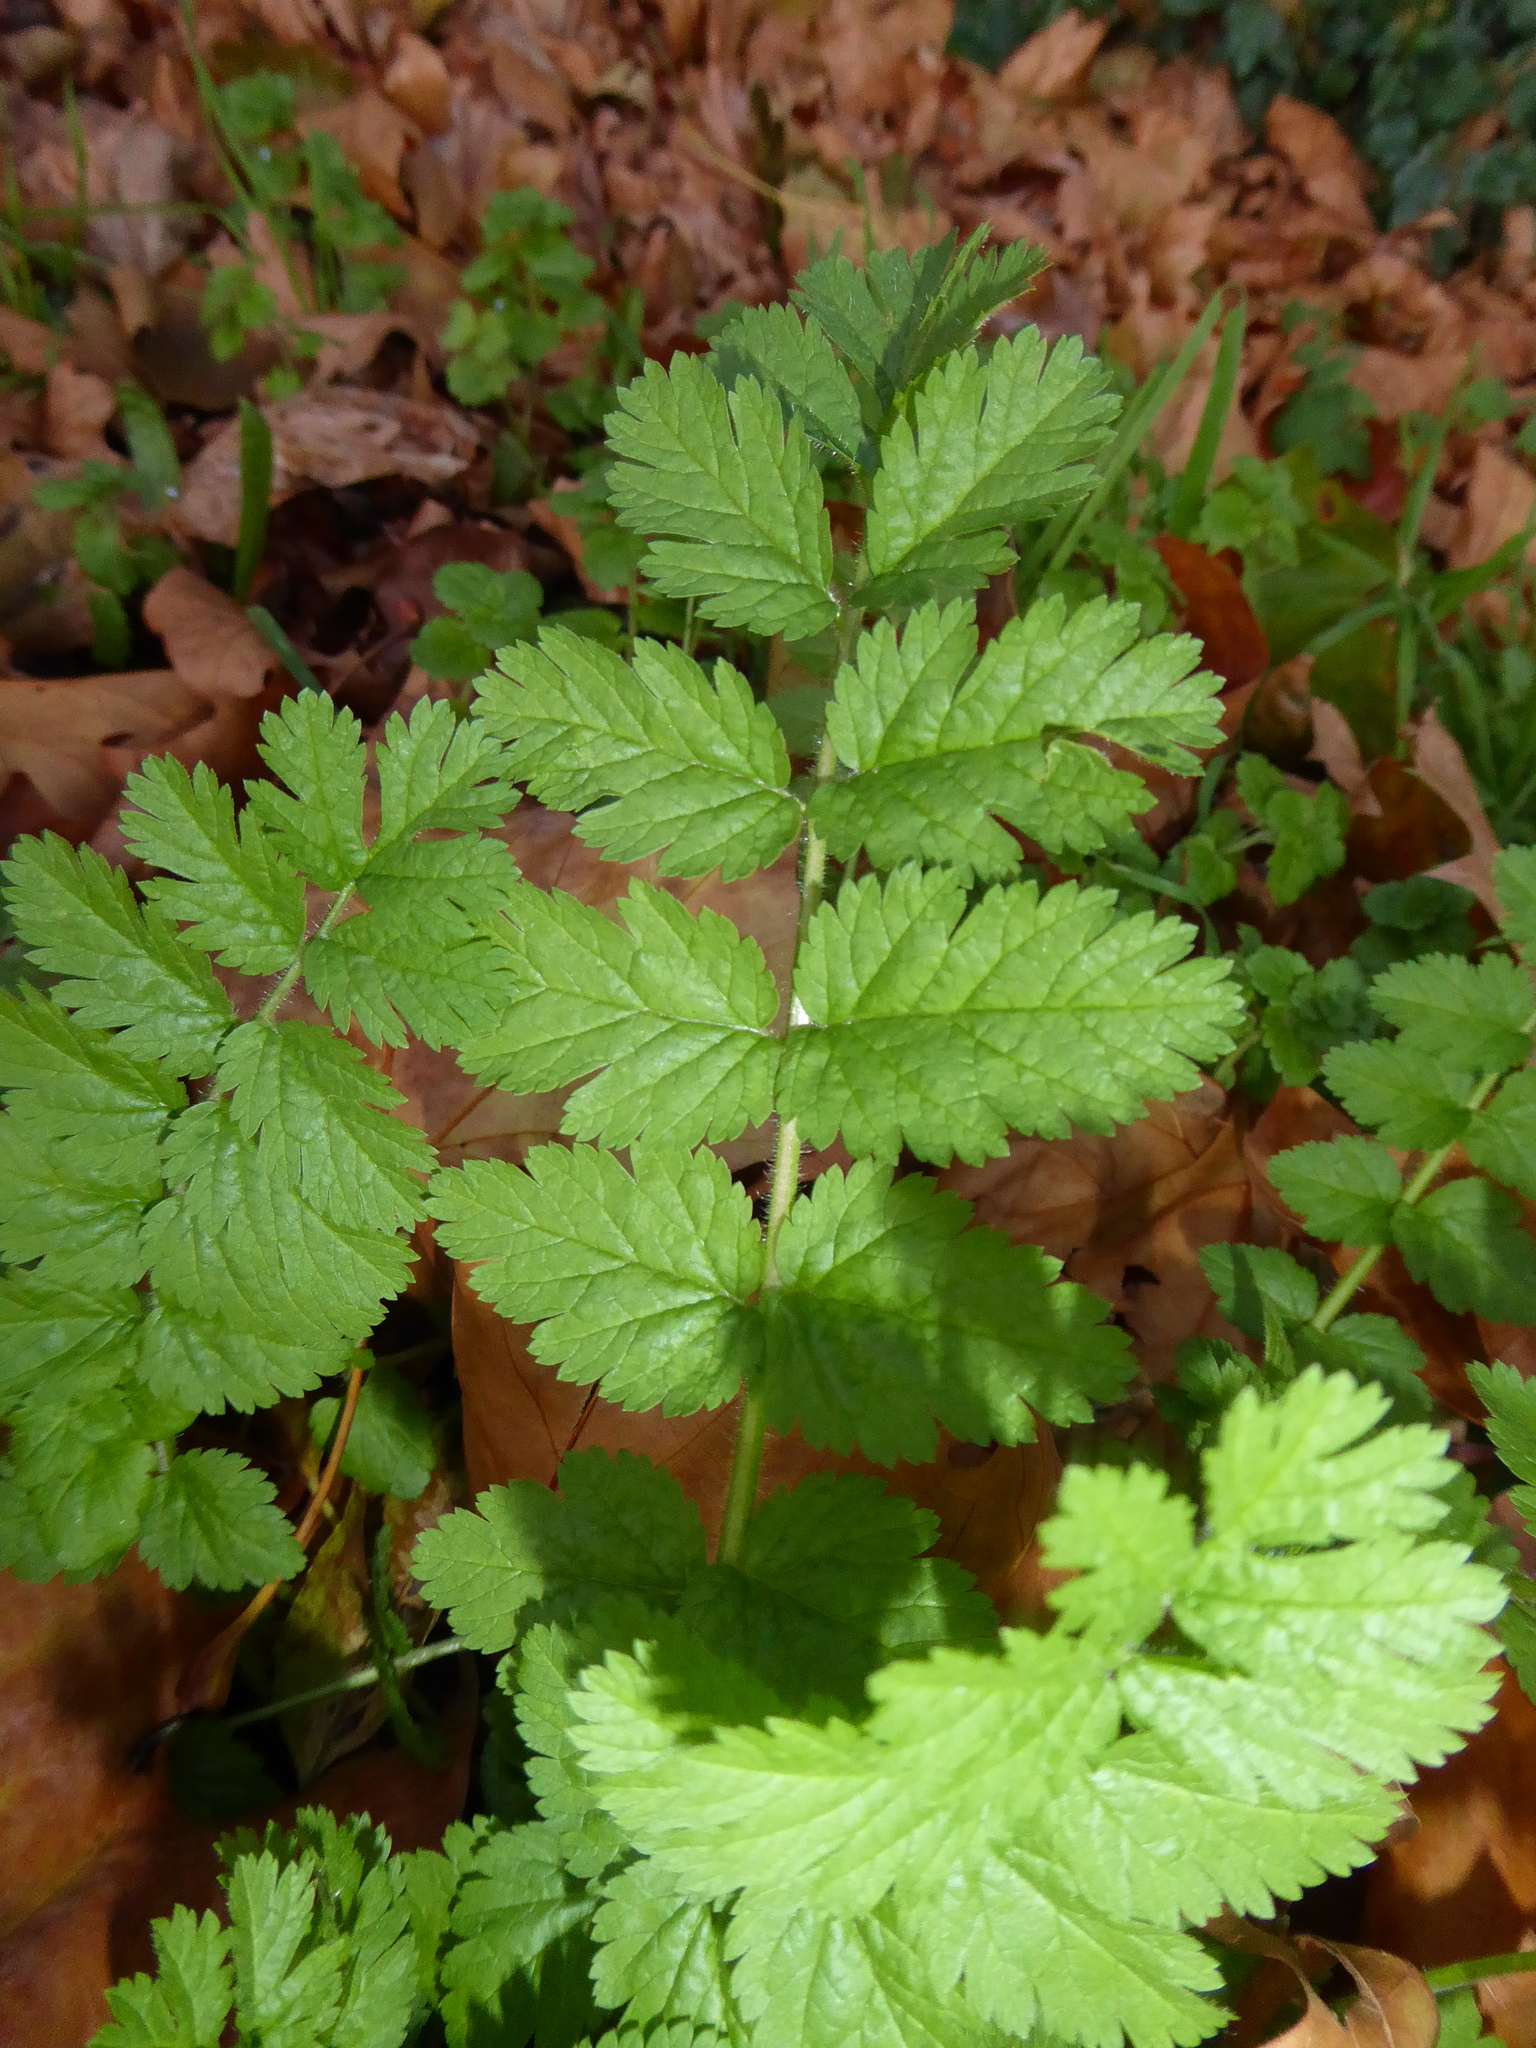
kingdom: Plantae
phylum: Tracheophyta
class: Magnoliopsida
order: Geraniales
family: Geraniaceae
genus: Erodium
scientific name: Erodium moschatum
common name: Musk stork's-bill
